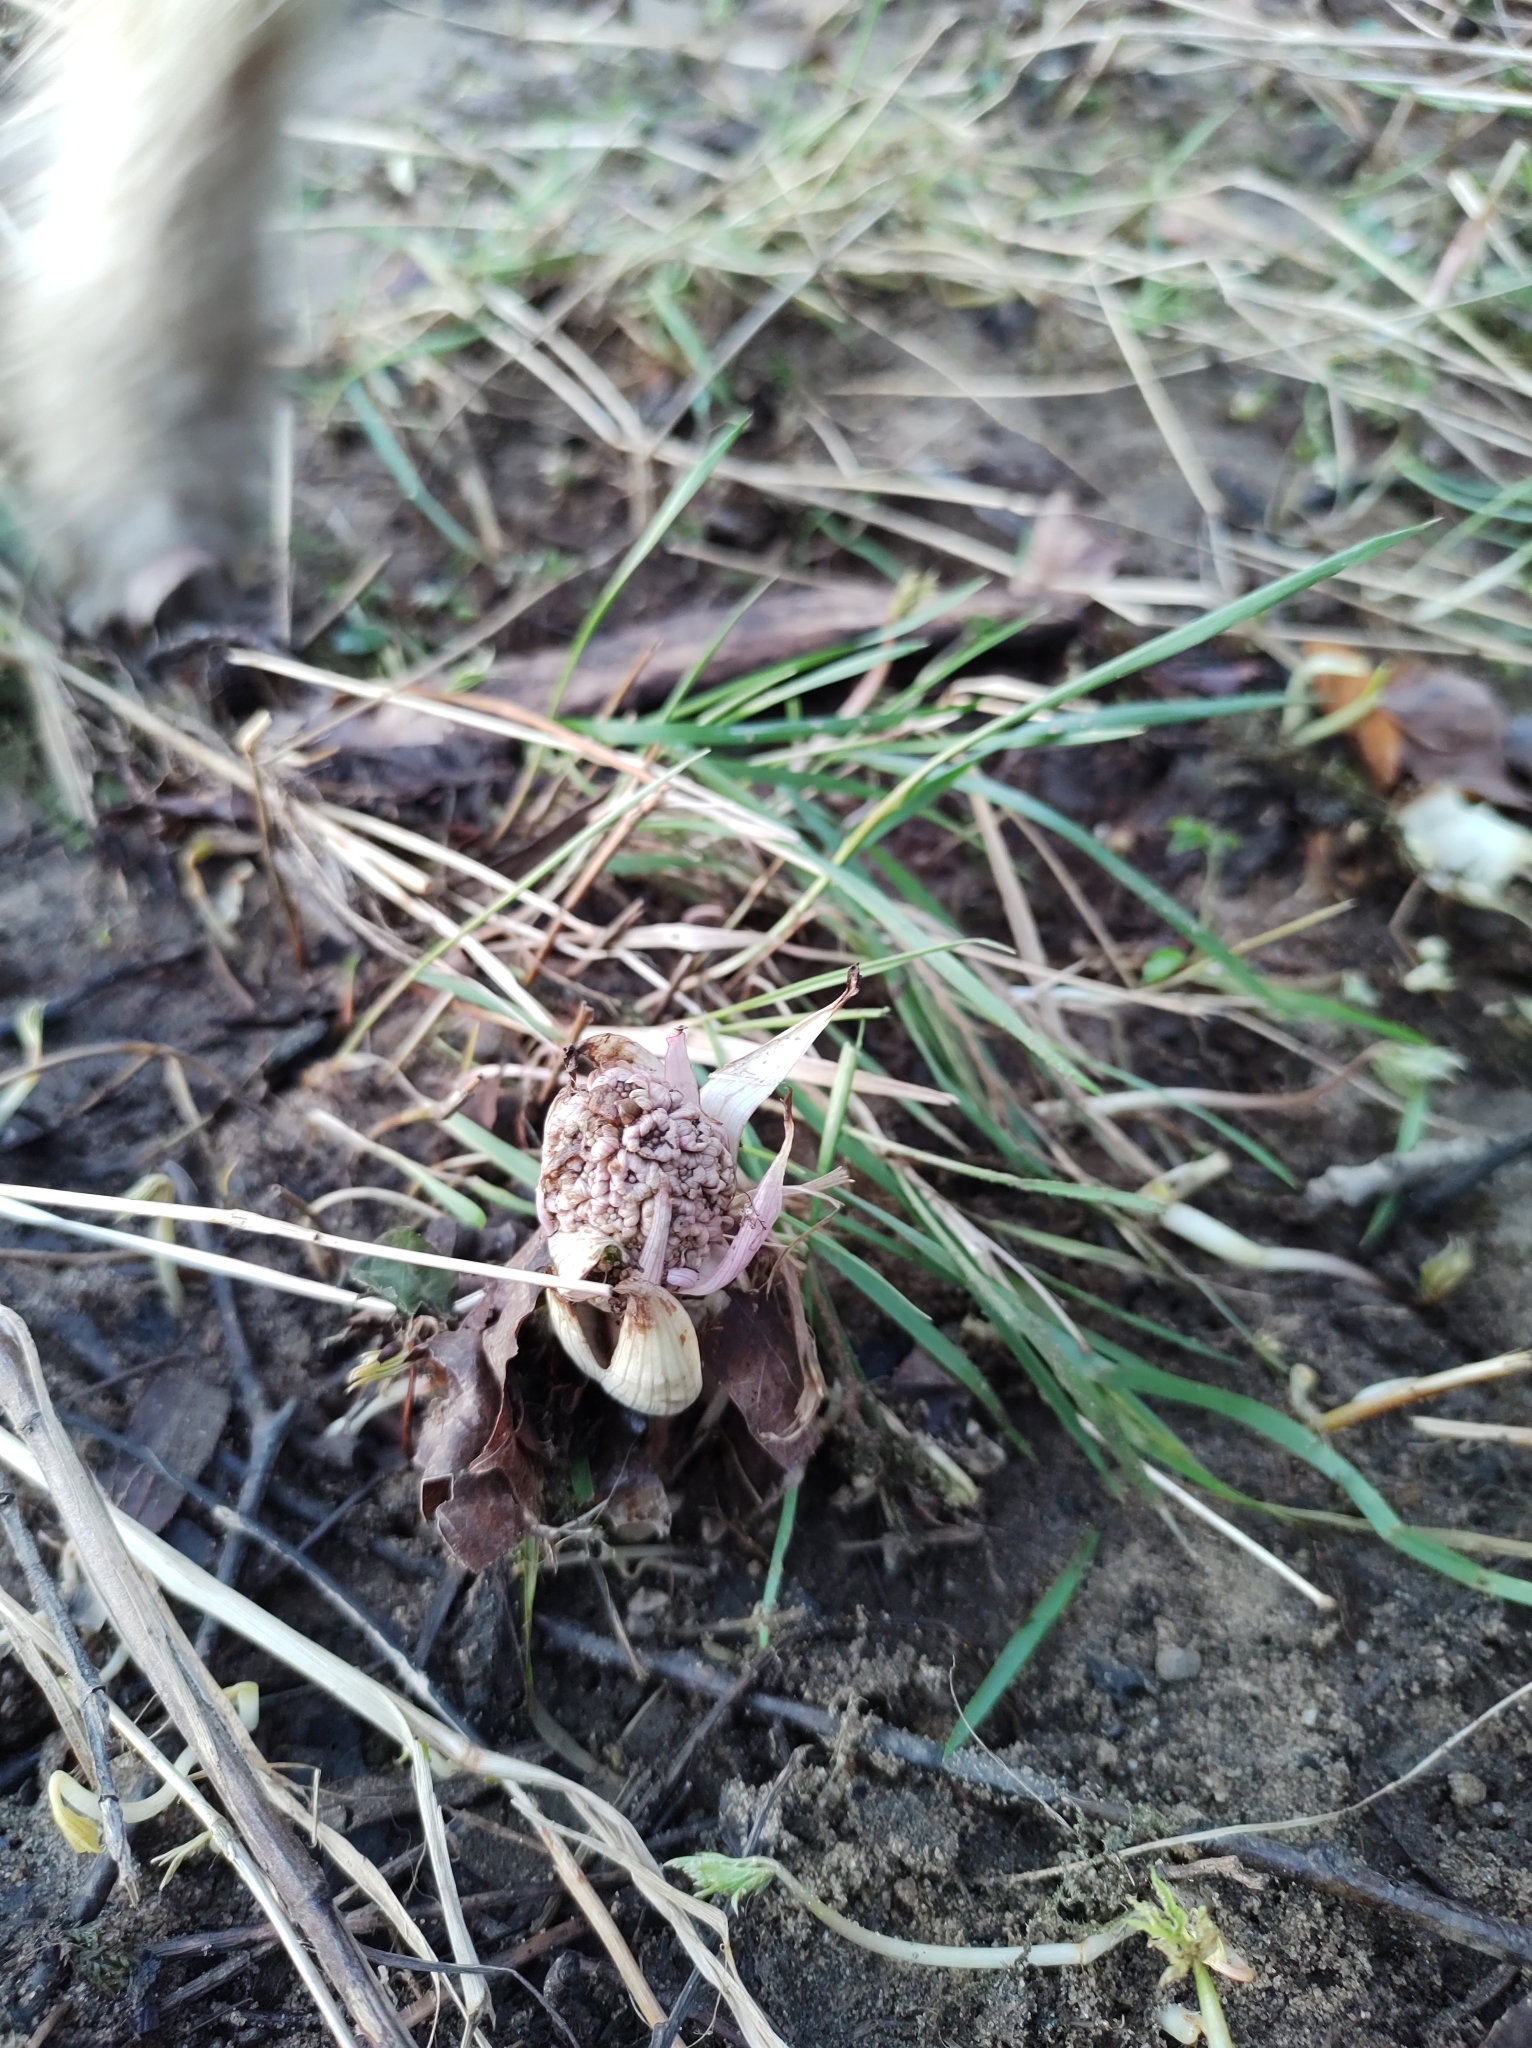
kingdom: Plantae
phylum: Tracheophyta
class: Magnoliopsida
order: Asterales
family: Asteraceae
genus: Petasites
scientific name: Petasites hybridus
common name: Butterbur
